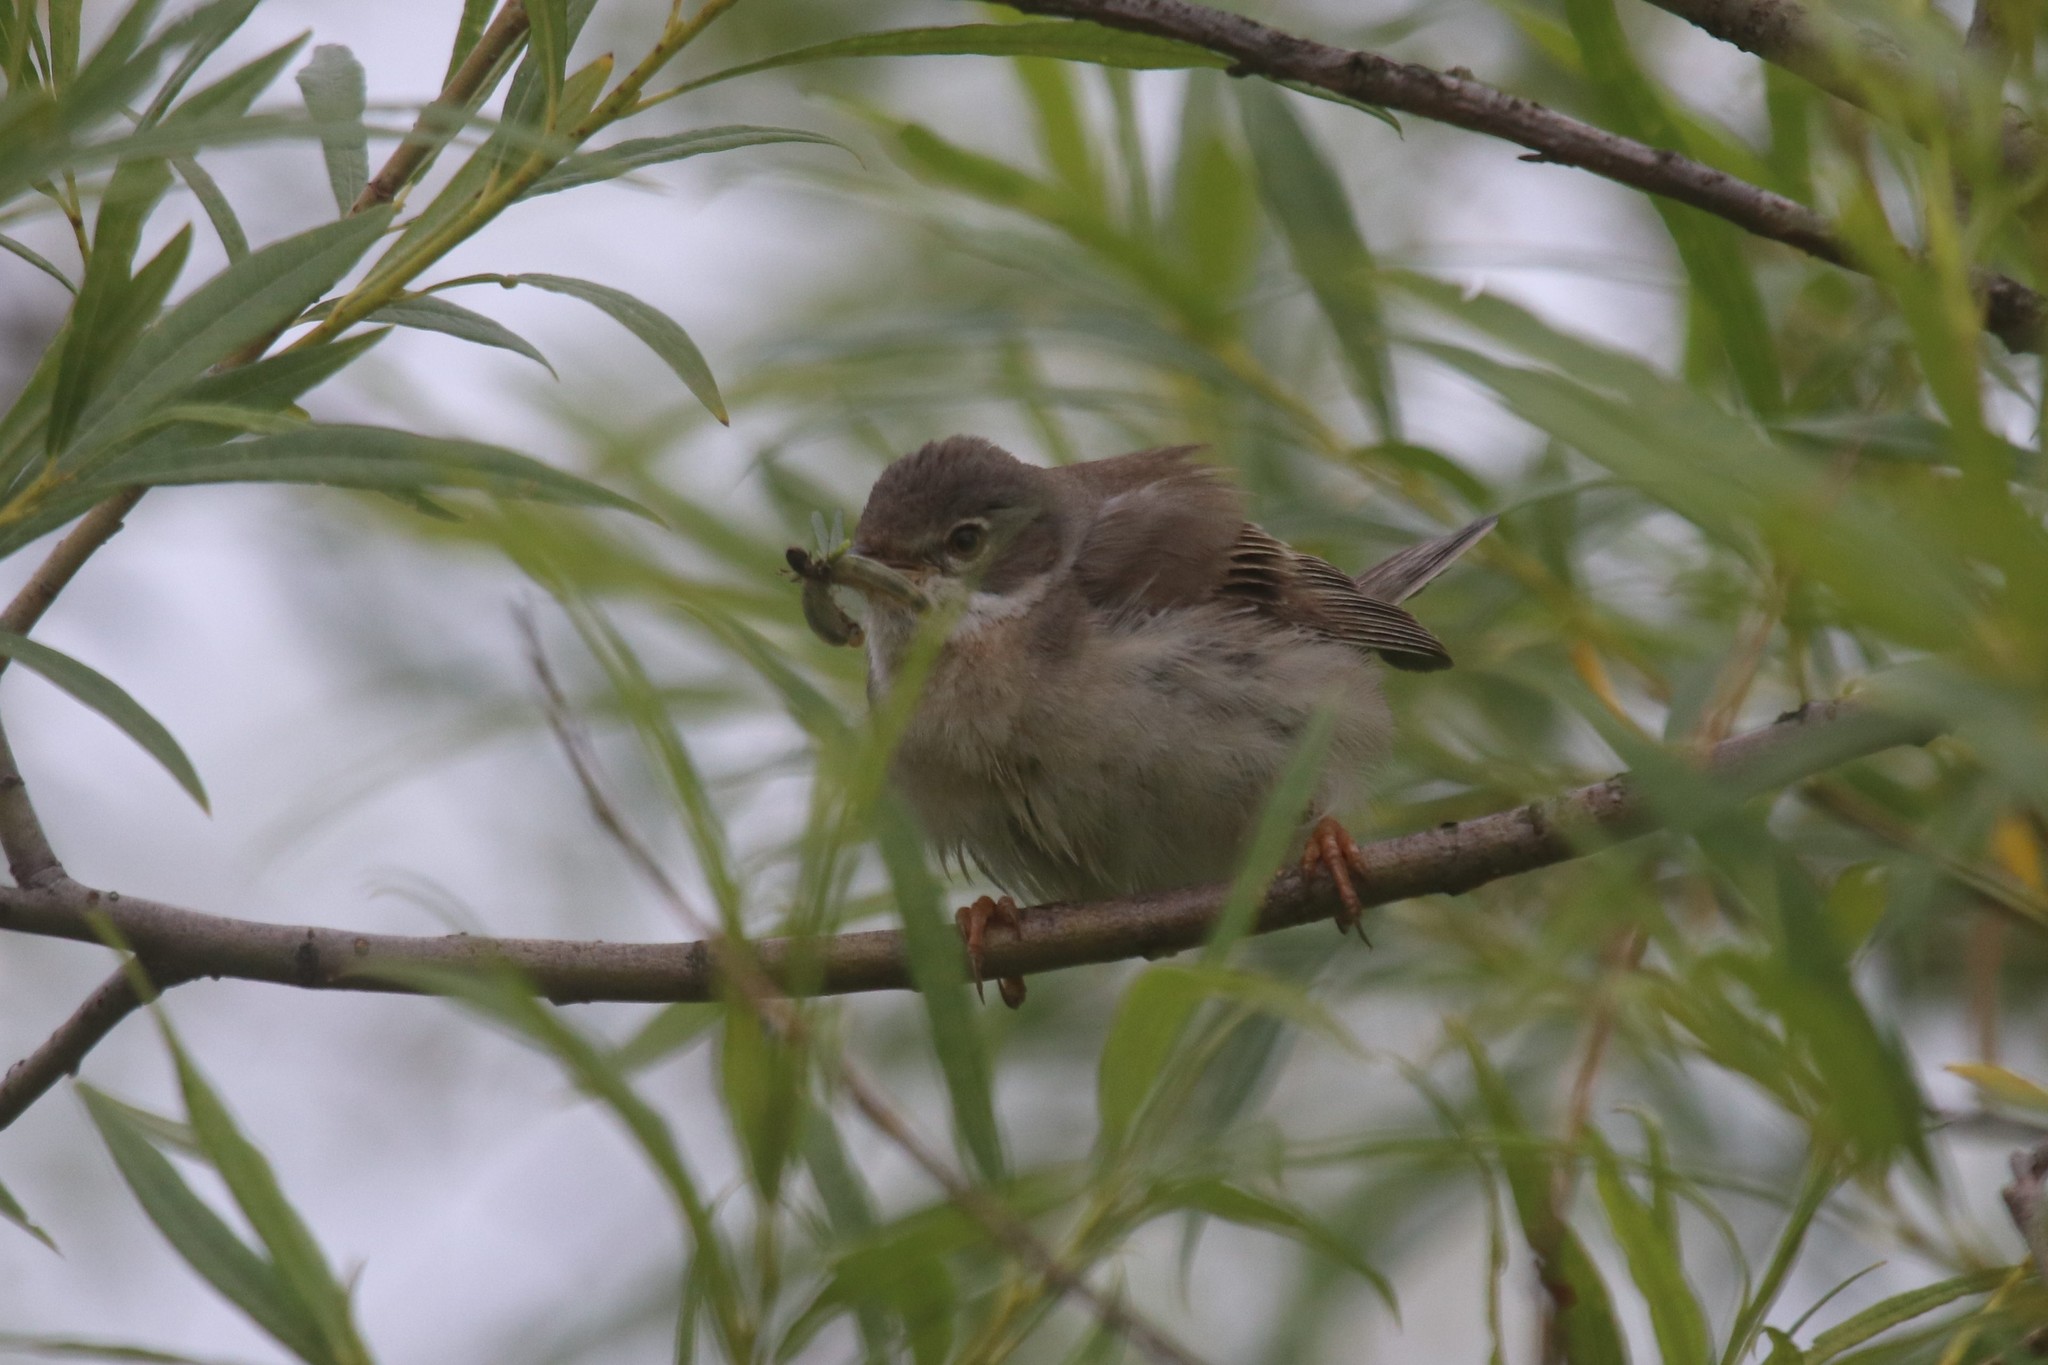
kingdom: Animalia
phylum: Chordata
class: Aves
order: Passeriformes
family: Sylviidae
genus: Sylvia
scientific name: Sylvia communis
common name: Common whitethroat
